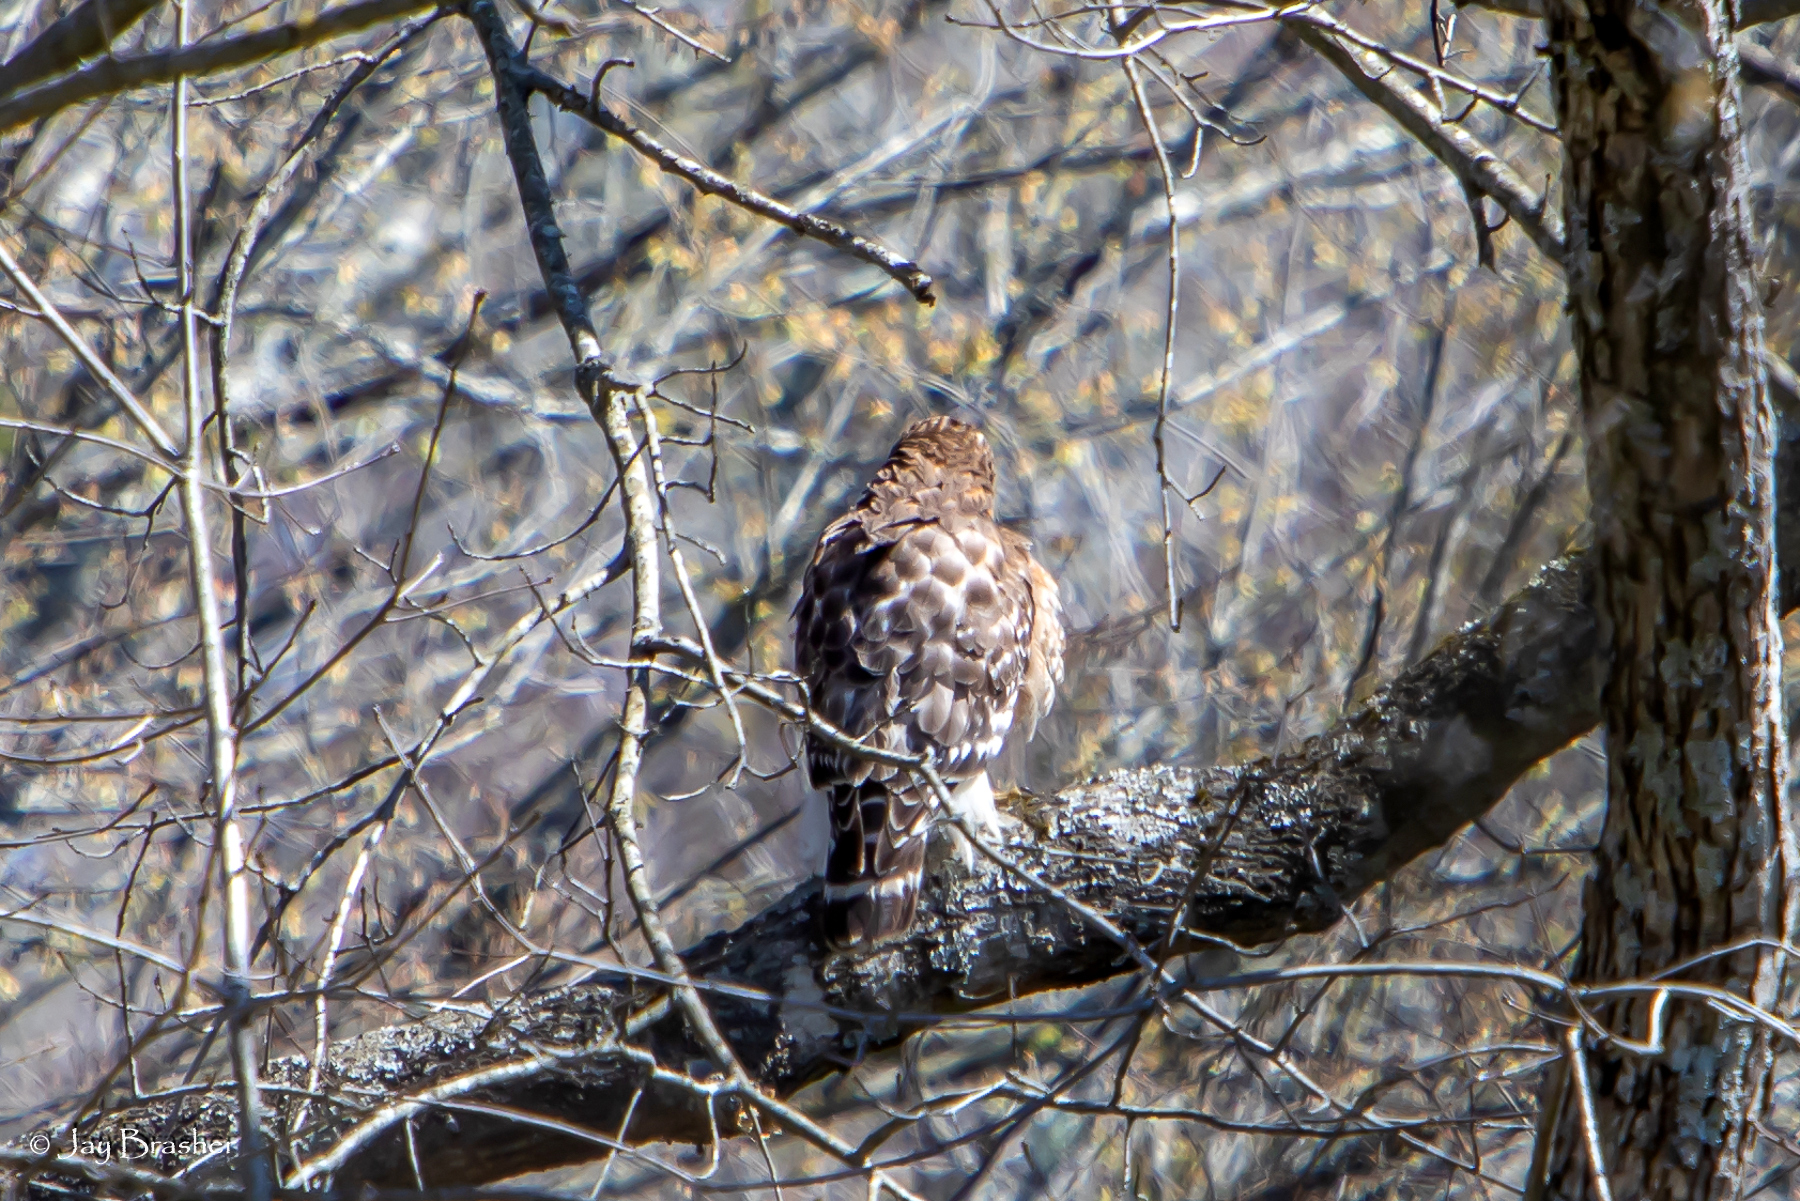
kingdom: Animalia
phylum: Chordata
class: Aves
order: Accipitriformes
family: Accipitridae
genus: Buteo
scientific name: Buteo lineatus
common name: Red-shouldered hawk
